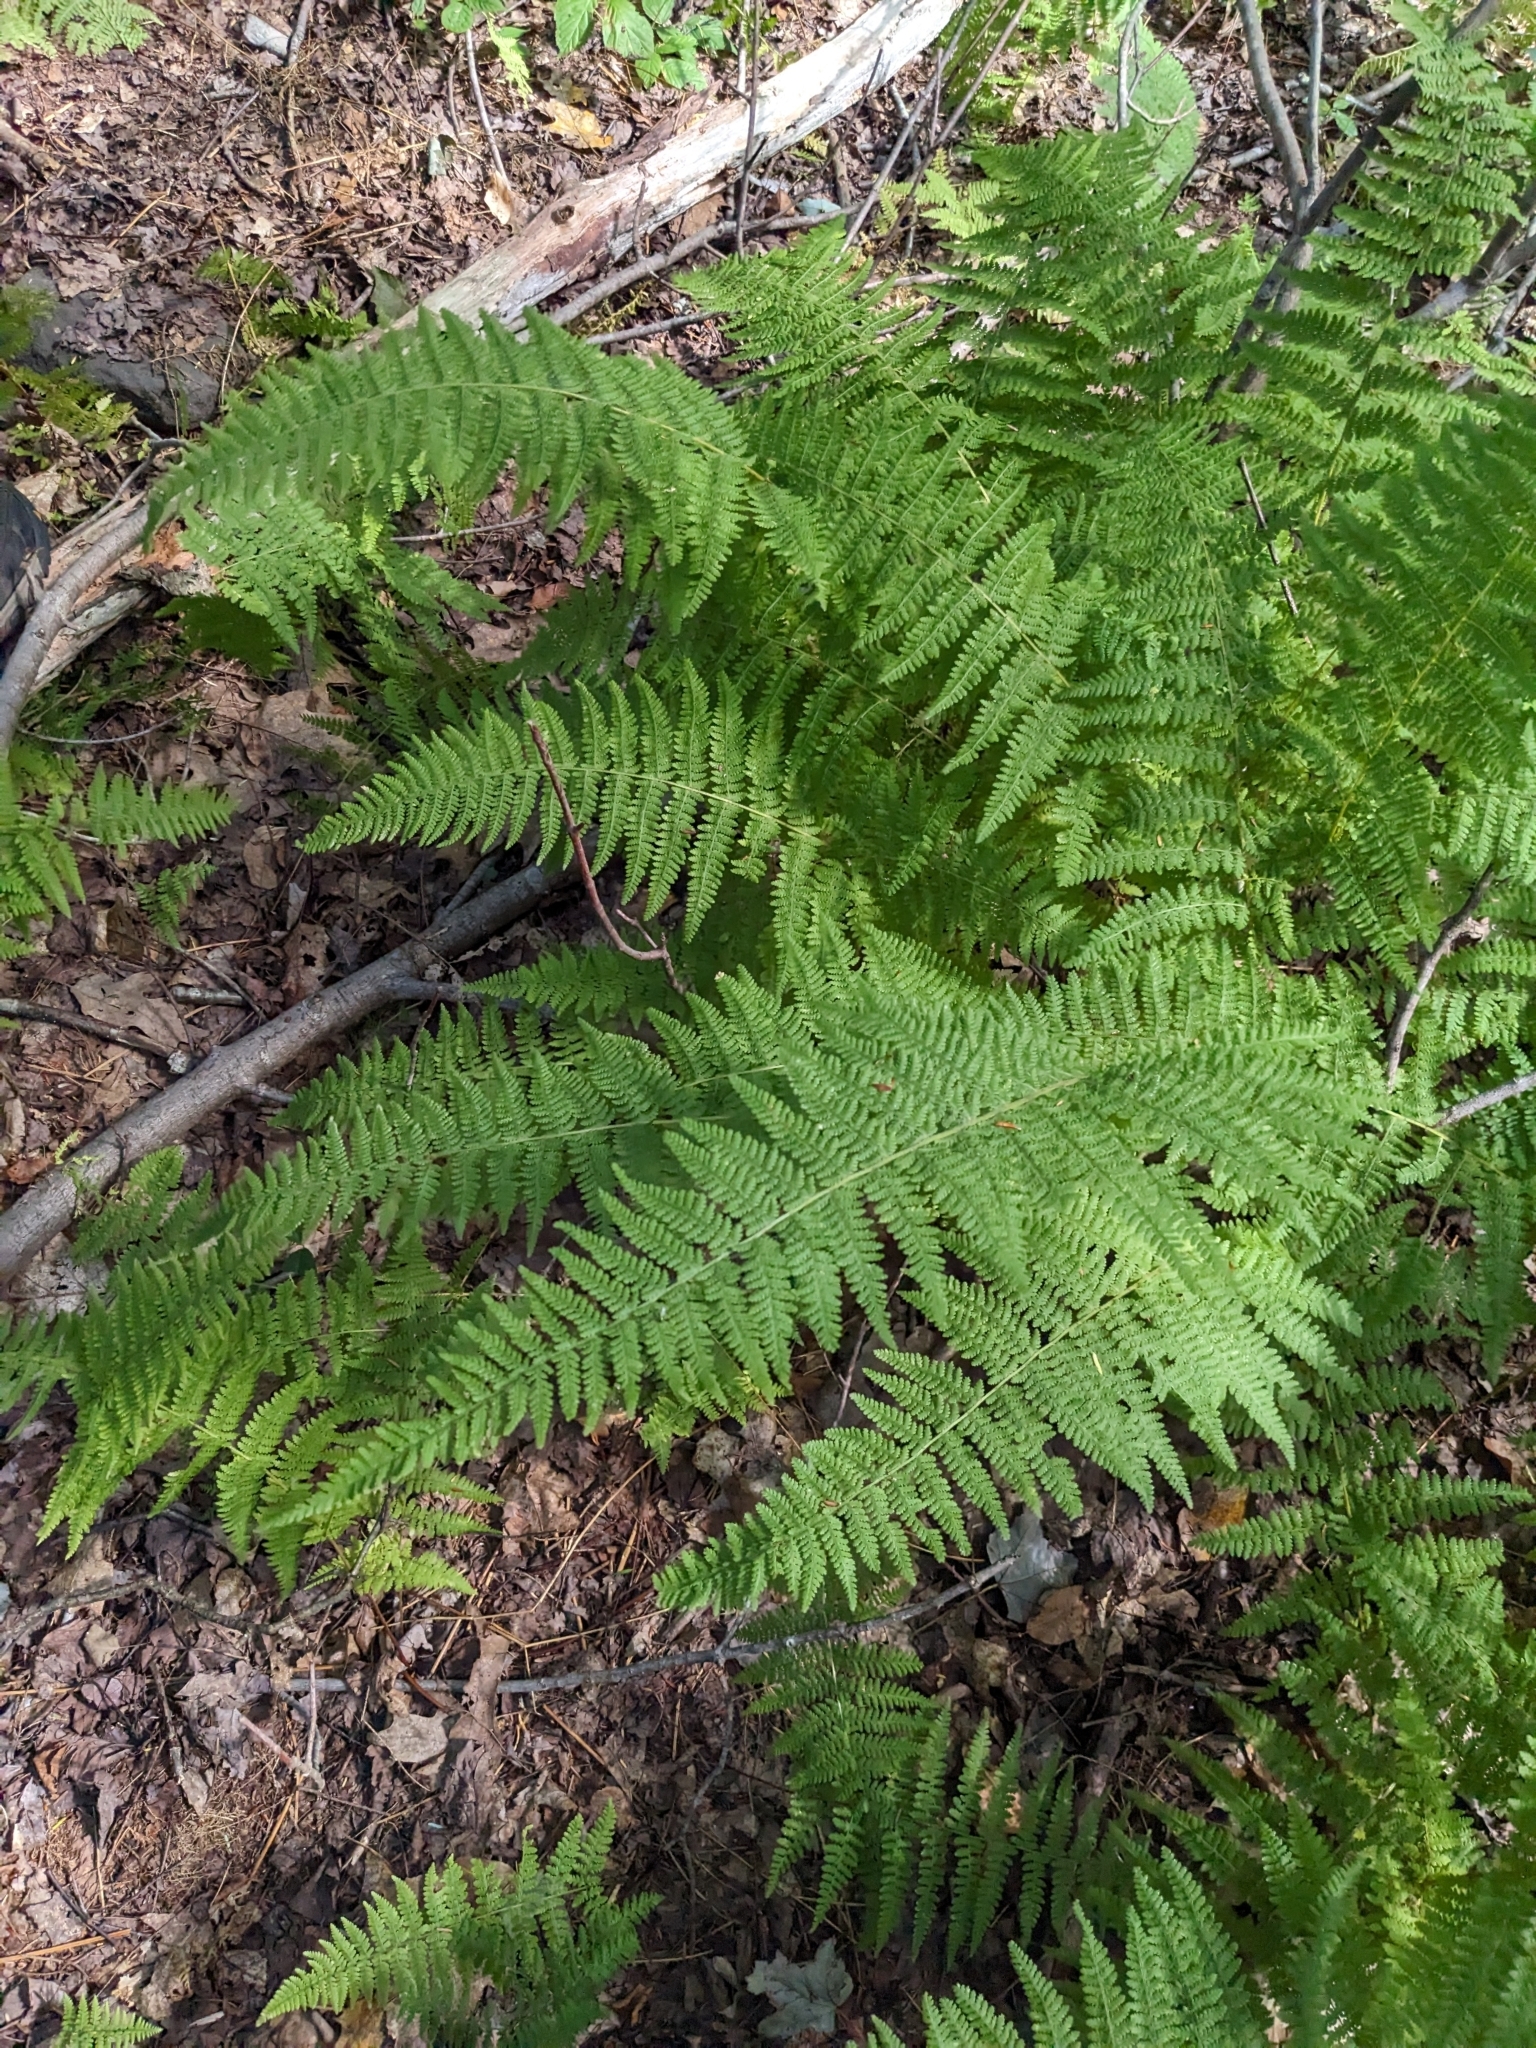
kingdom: Plantae
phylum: Tracheophyta
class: Polypodiopsida
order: Polypodiales
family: Dennstaedtiaceae
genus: Sitobolium
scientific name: Sitobolium punctilobum
